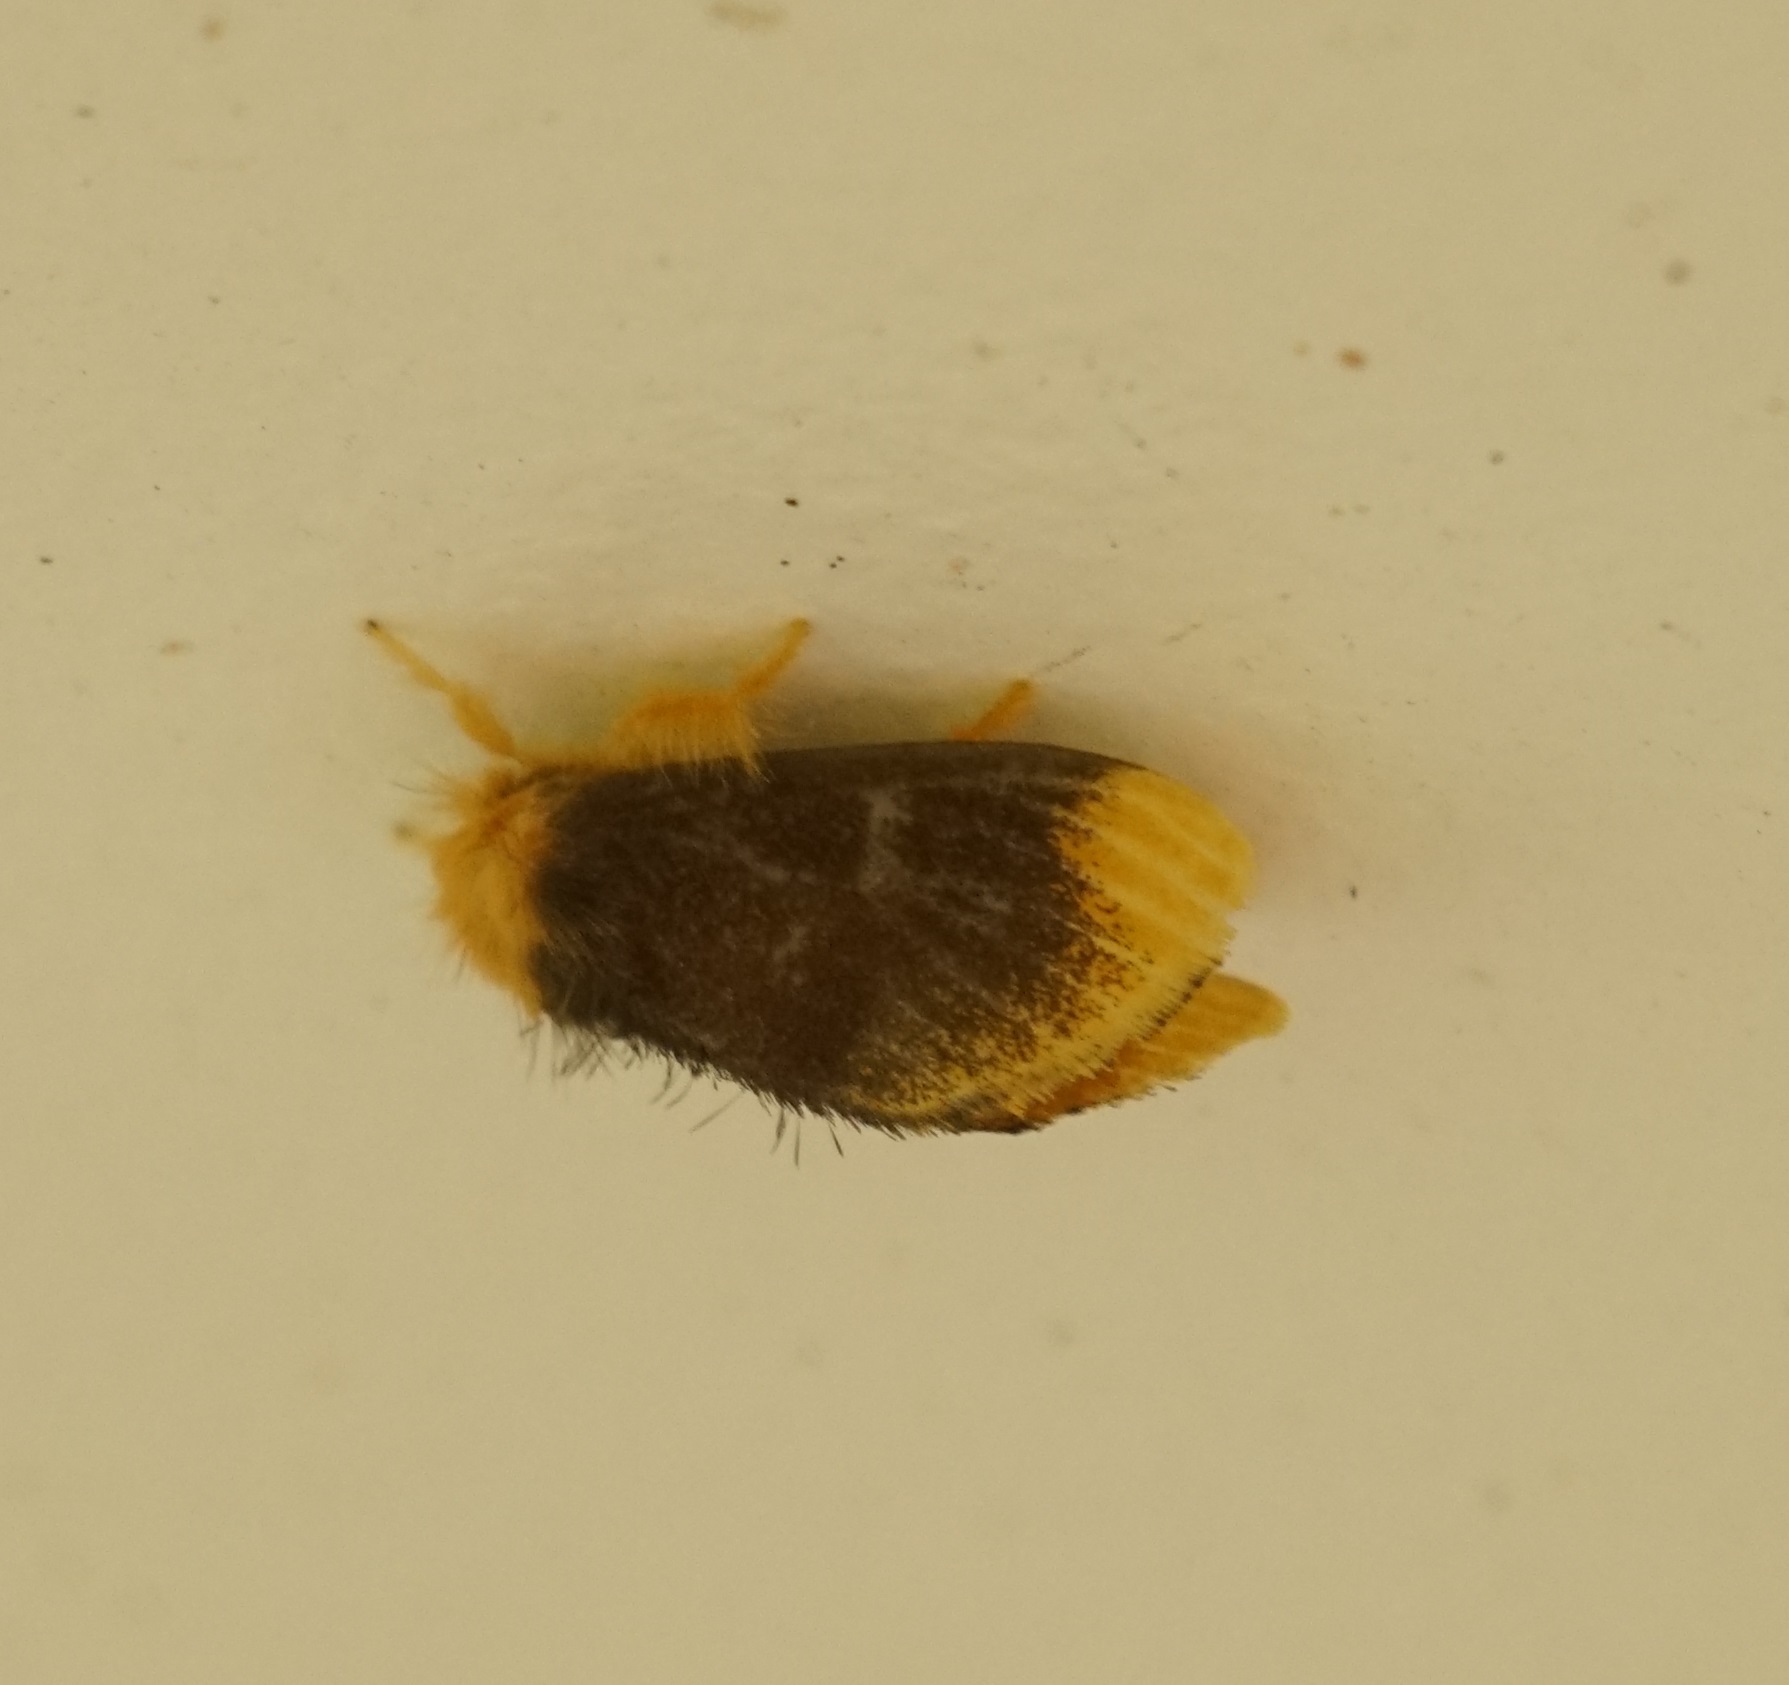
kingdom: Animalia
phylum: Arthropoda
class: Insecta
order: Lepidoptera
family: Erebidae
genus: Euproctis
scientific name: Euproctis subnobilis
